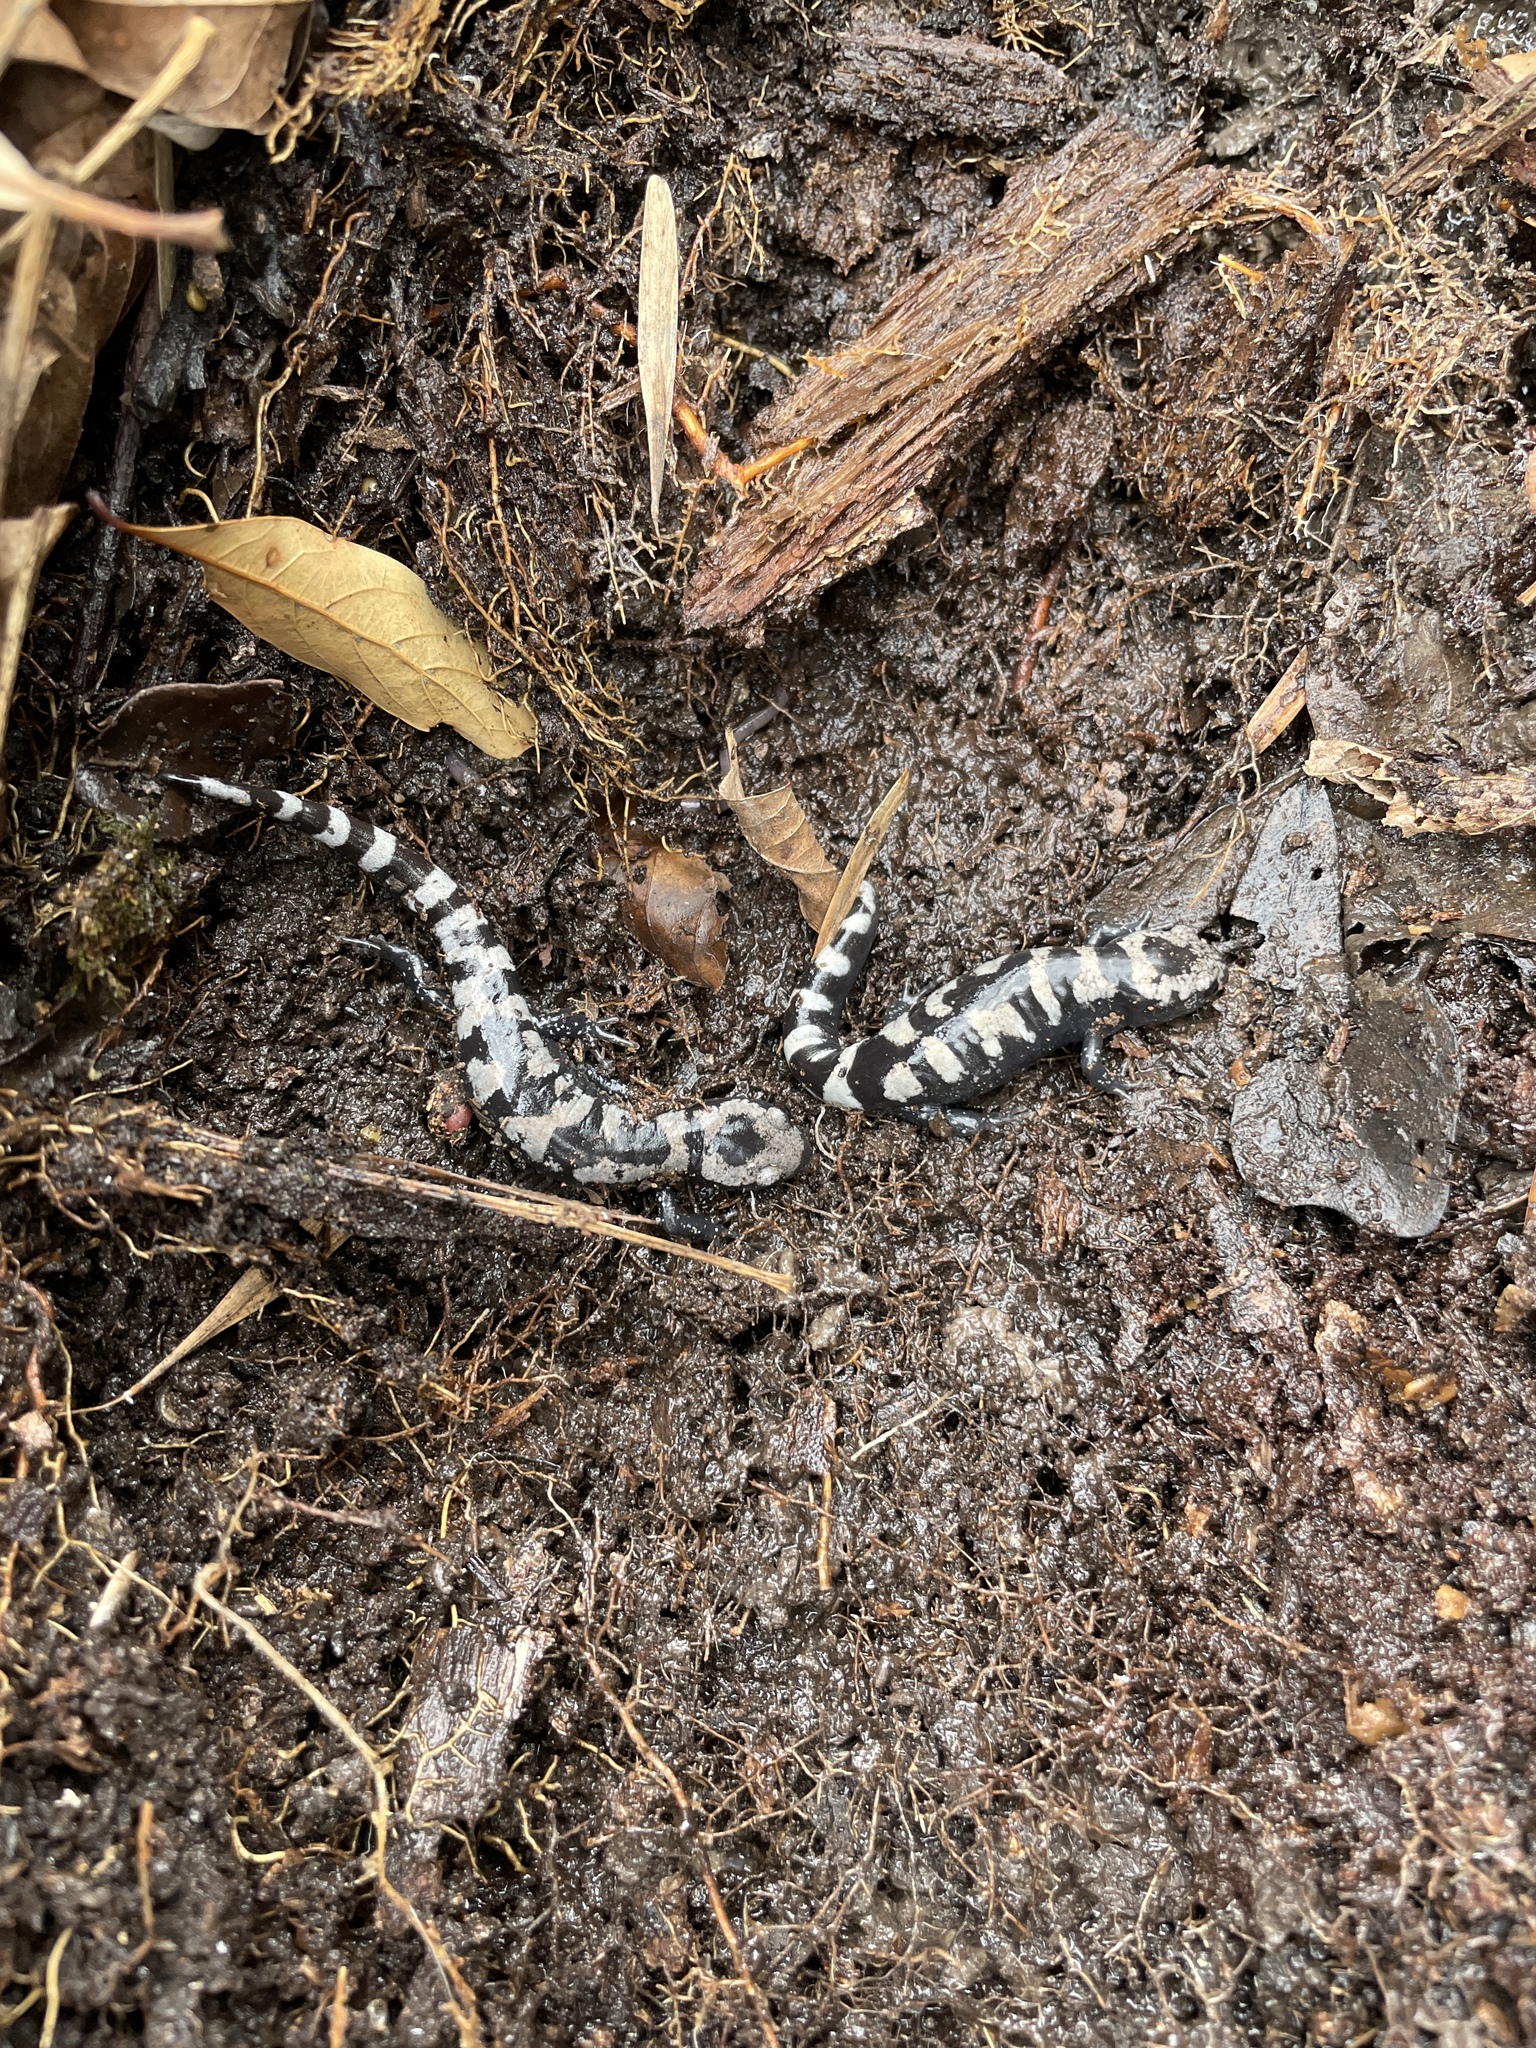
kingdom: Animalia
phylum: Chordata
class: Amphibia
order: Caudata
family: Ambystomatidae
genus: Ambystoma
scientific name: Ambystoma opacum
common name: Marbled salamander
